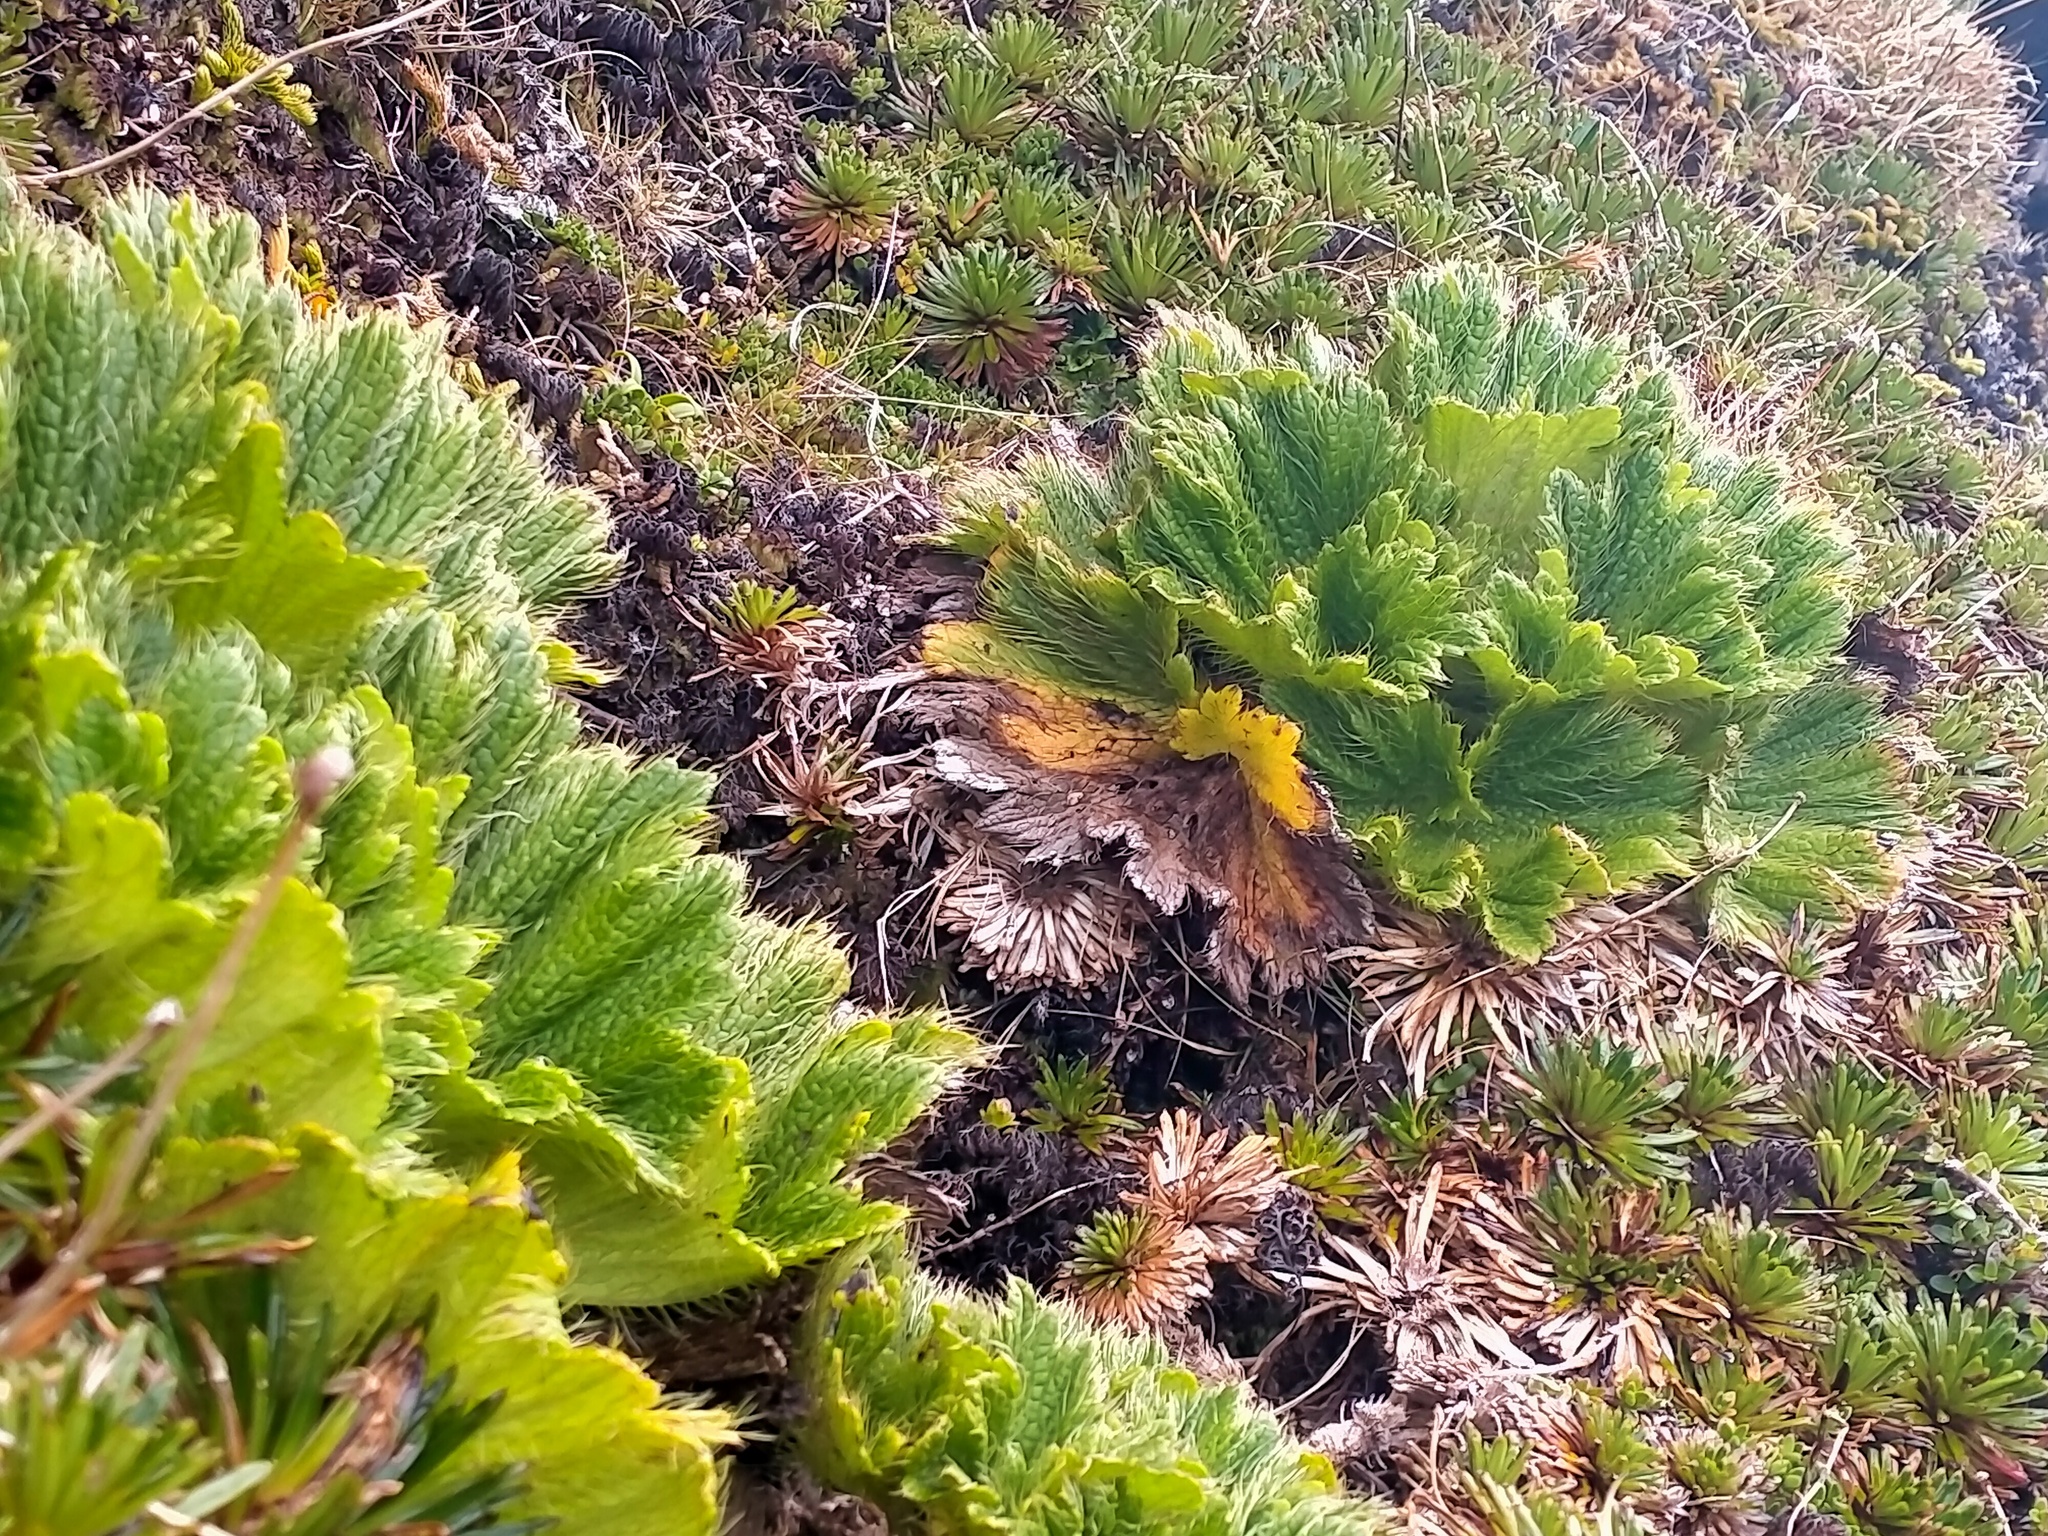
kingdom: Plantae
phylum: Tracheophyta
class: Magnoliopsida
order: Apiales
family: Apiaceae
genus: Azorella
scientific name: Azorella polaris
